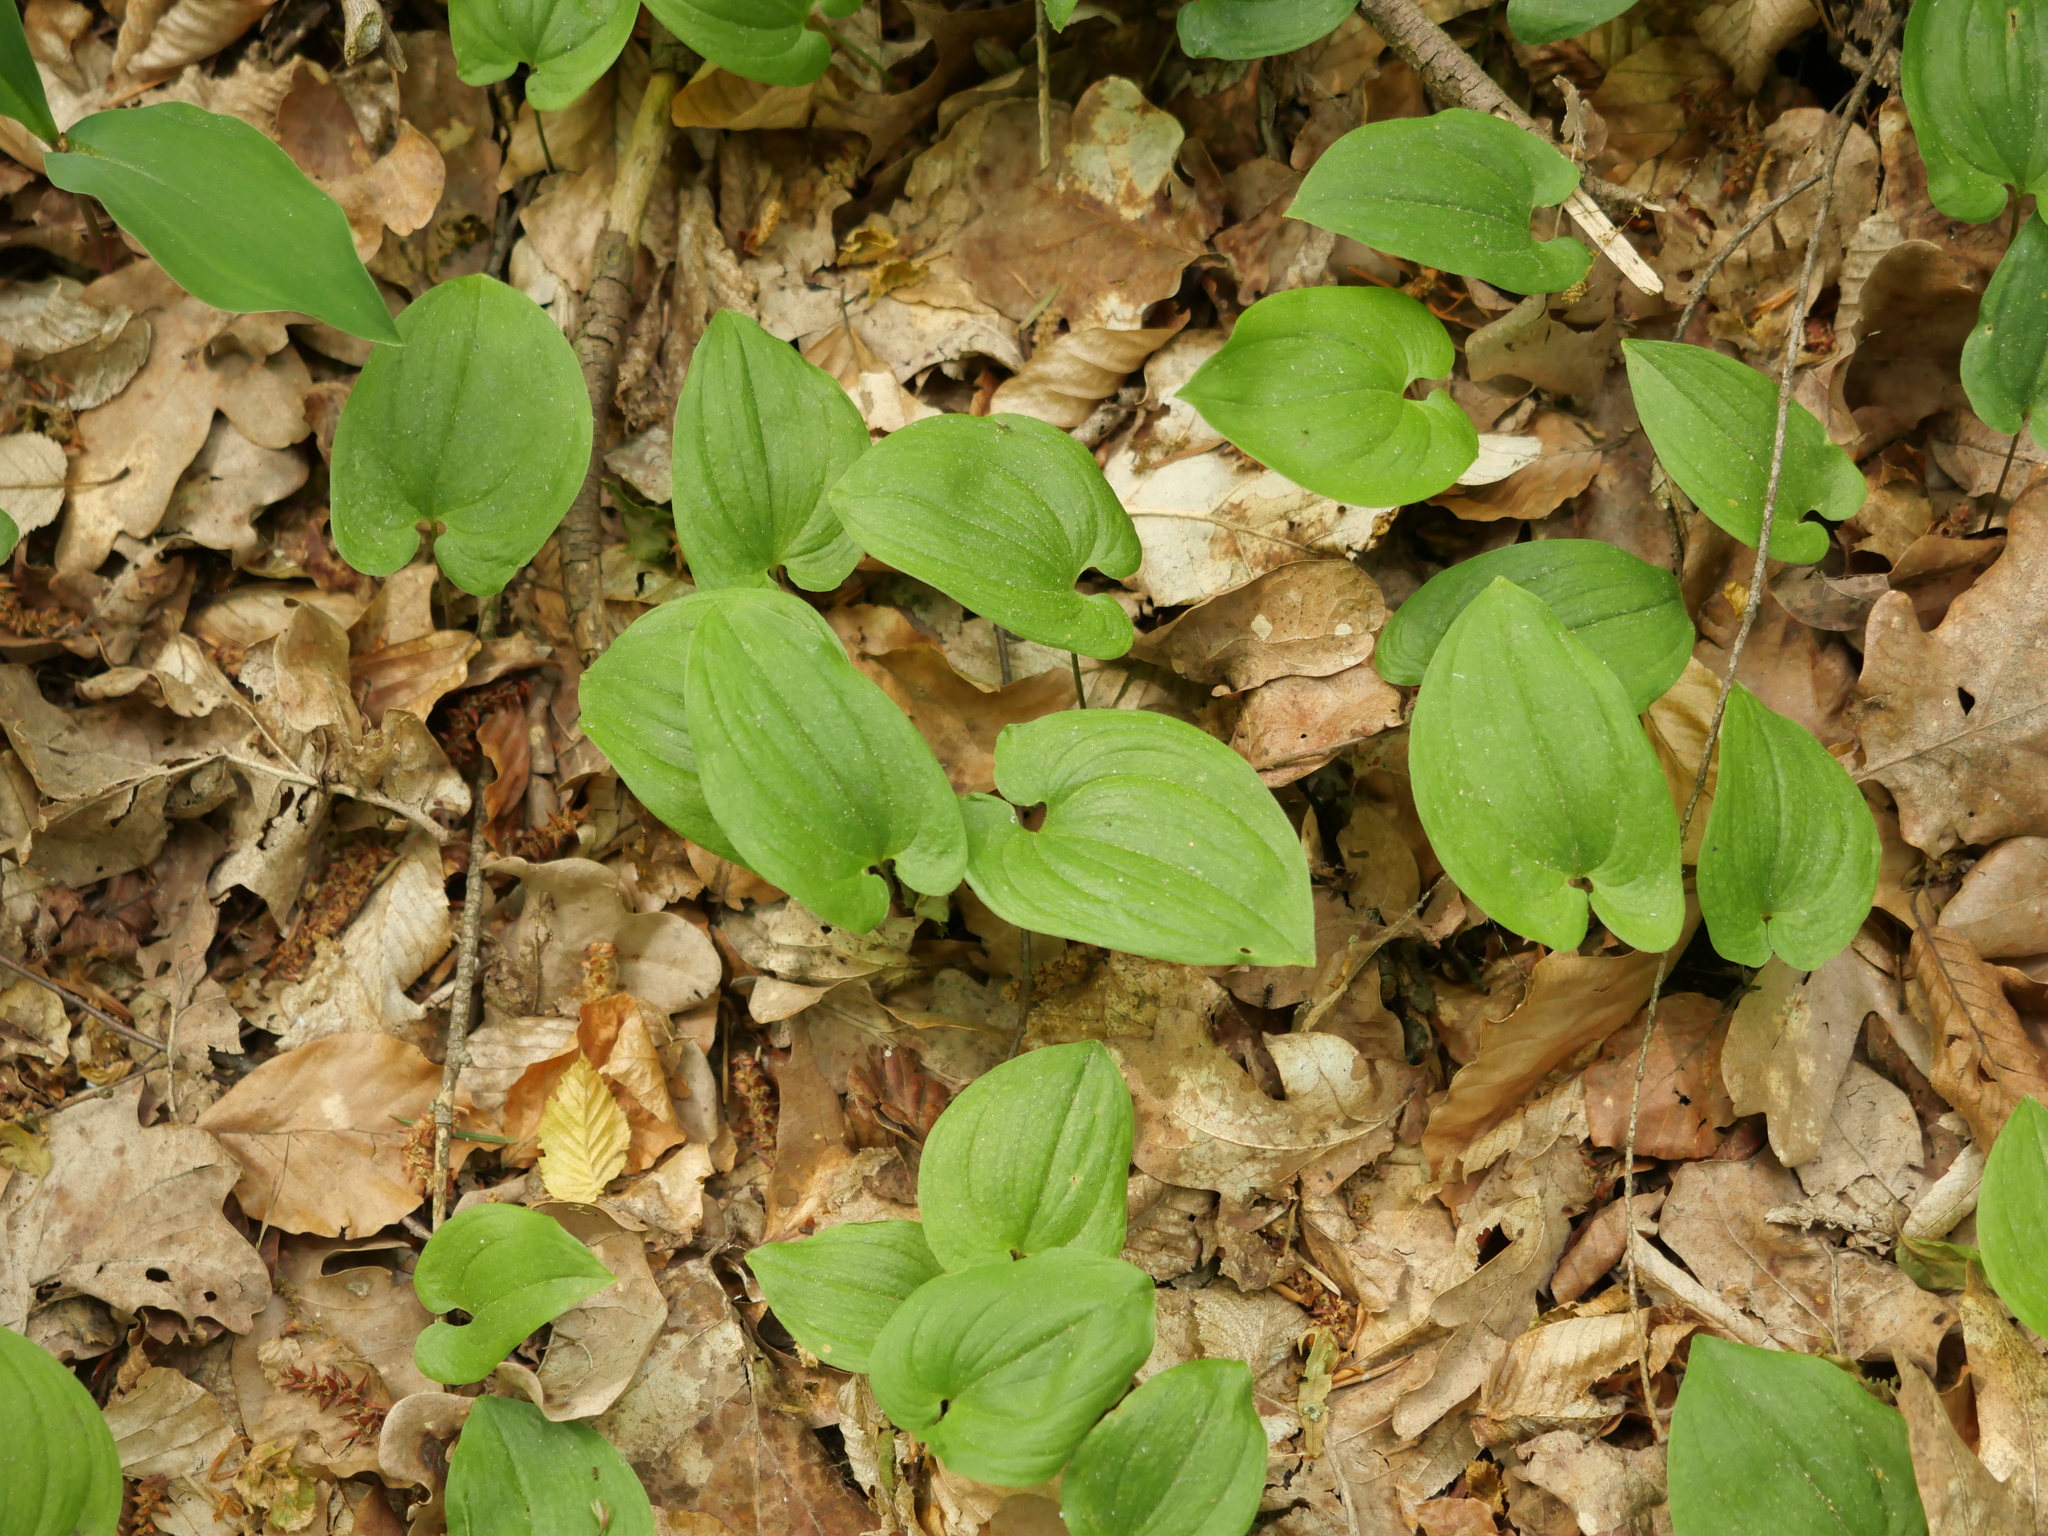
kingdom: Plantae
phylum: Tracheophyta
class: Liliopsida
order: Asparagales
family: Asparagaceae
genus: Maianthemum
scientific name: Maianthemum bifolium
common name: May lily
